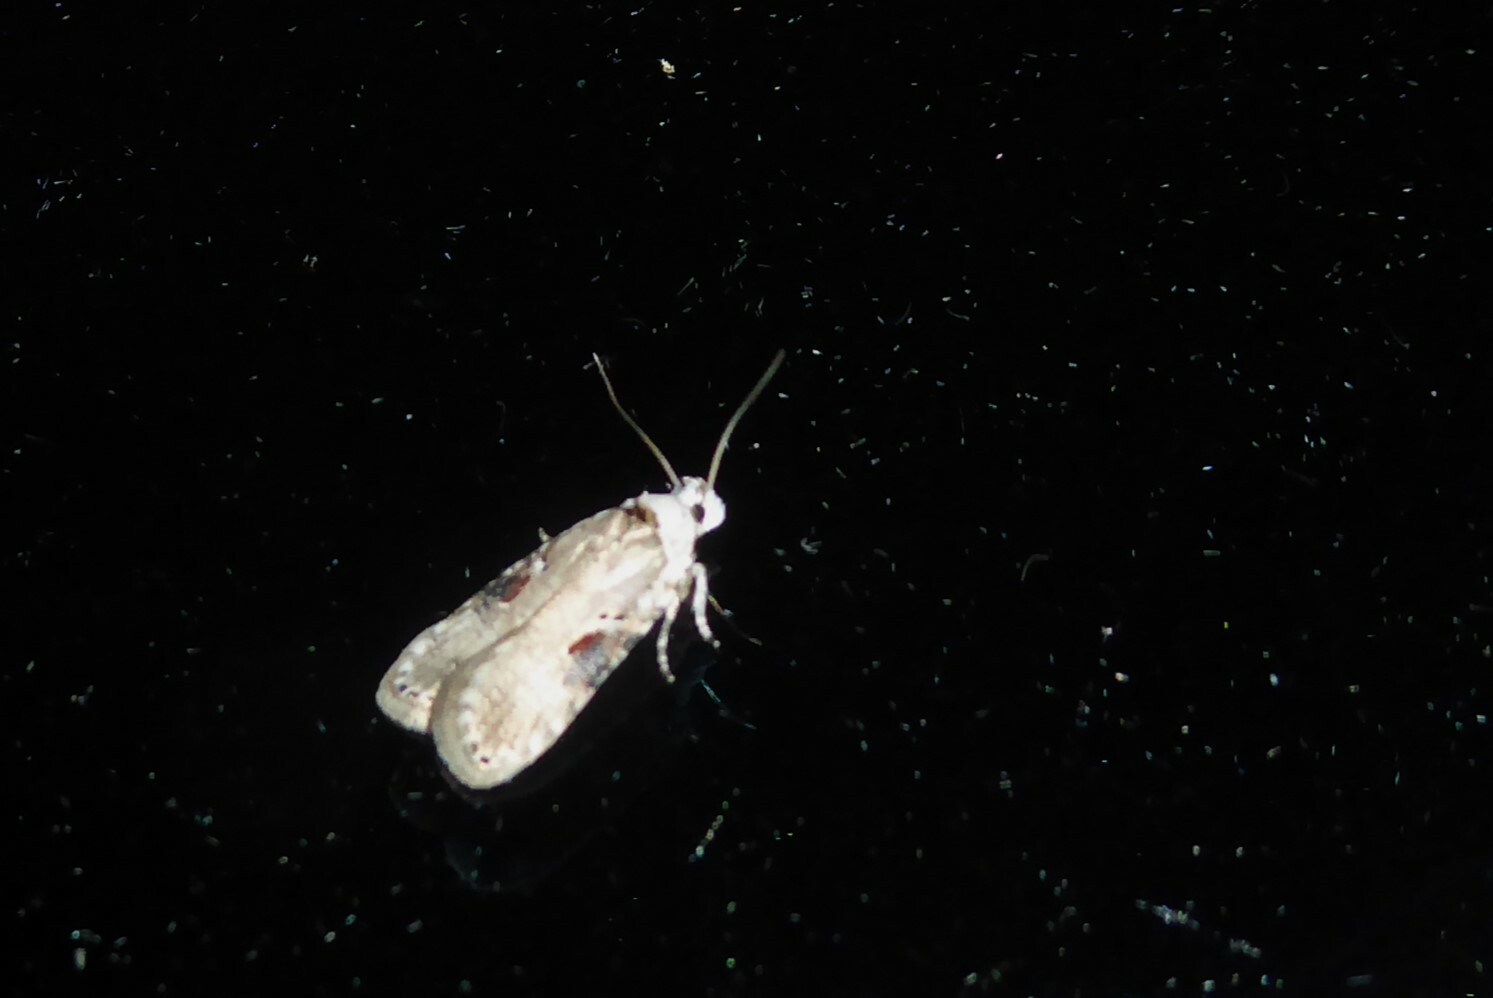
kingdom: Animalia
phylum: Arthropoda
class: Insecta
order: Lepidoptera
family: Depressariidae
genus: Agonopterix
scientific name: Agonopterix alstroemeriana
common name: Moth
